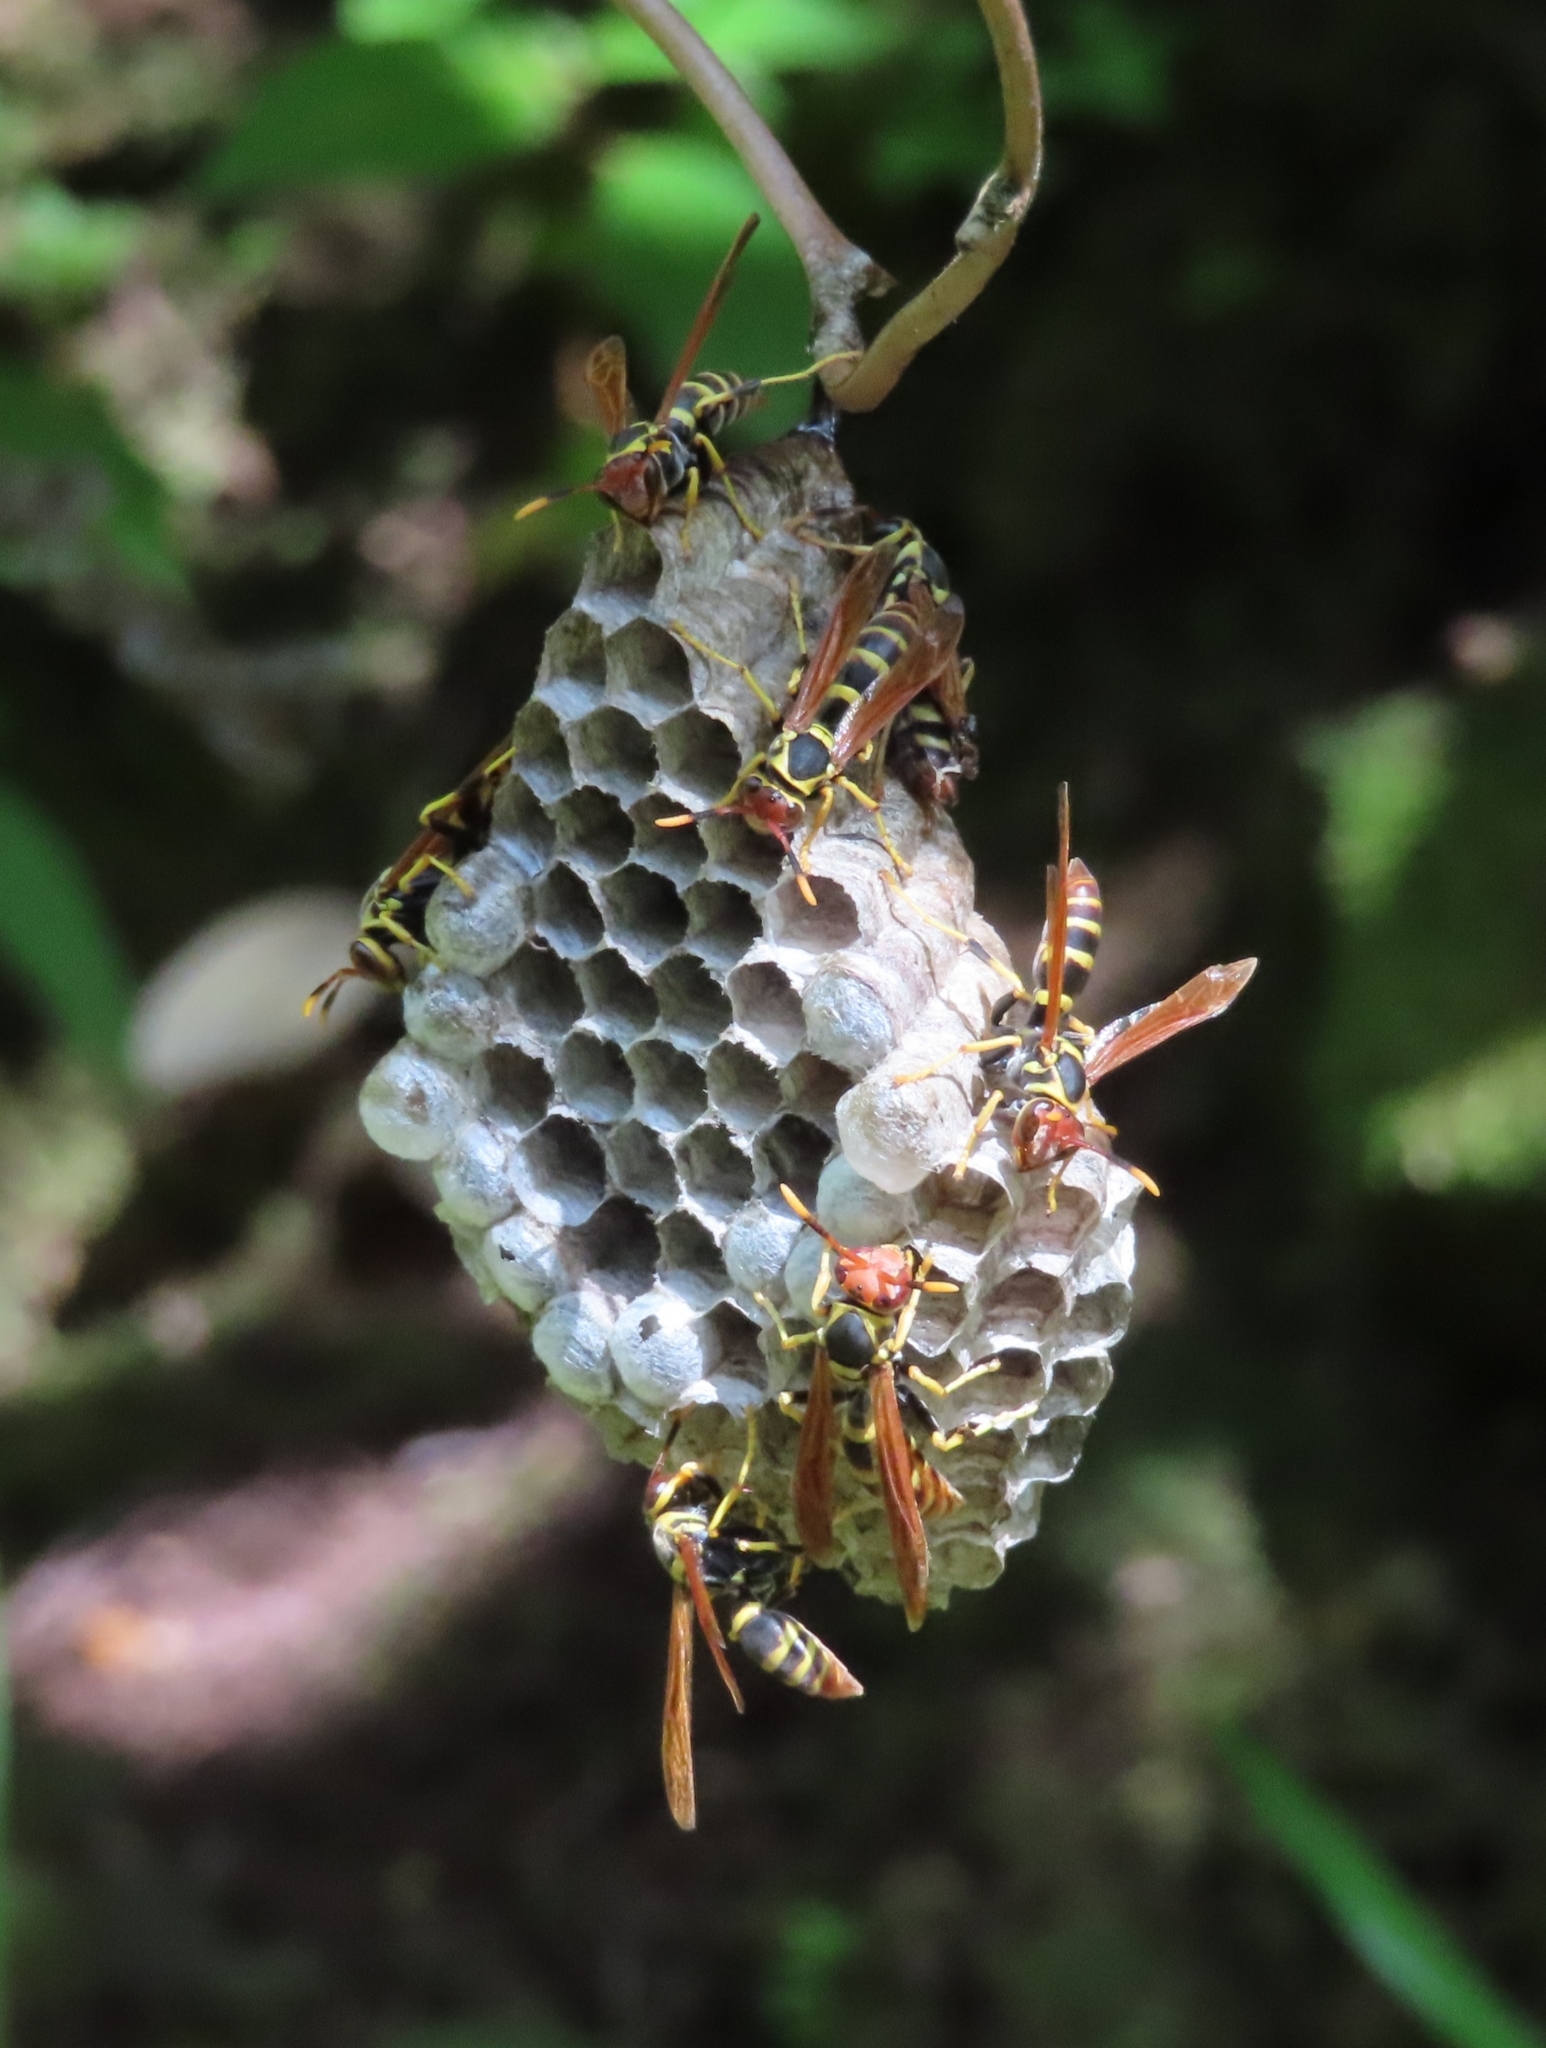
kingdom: Animalia
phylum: Arthropoda
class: Insecta
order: Hymenoptera
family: Eumenidae
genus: Polistes
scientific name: Polistes crinitus
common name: Jack spaniard
